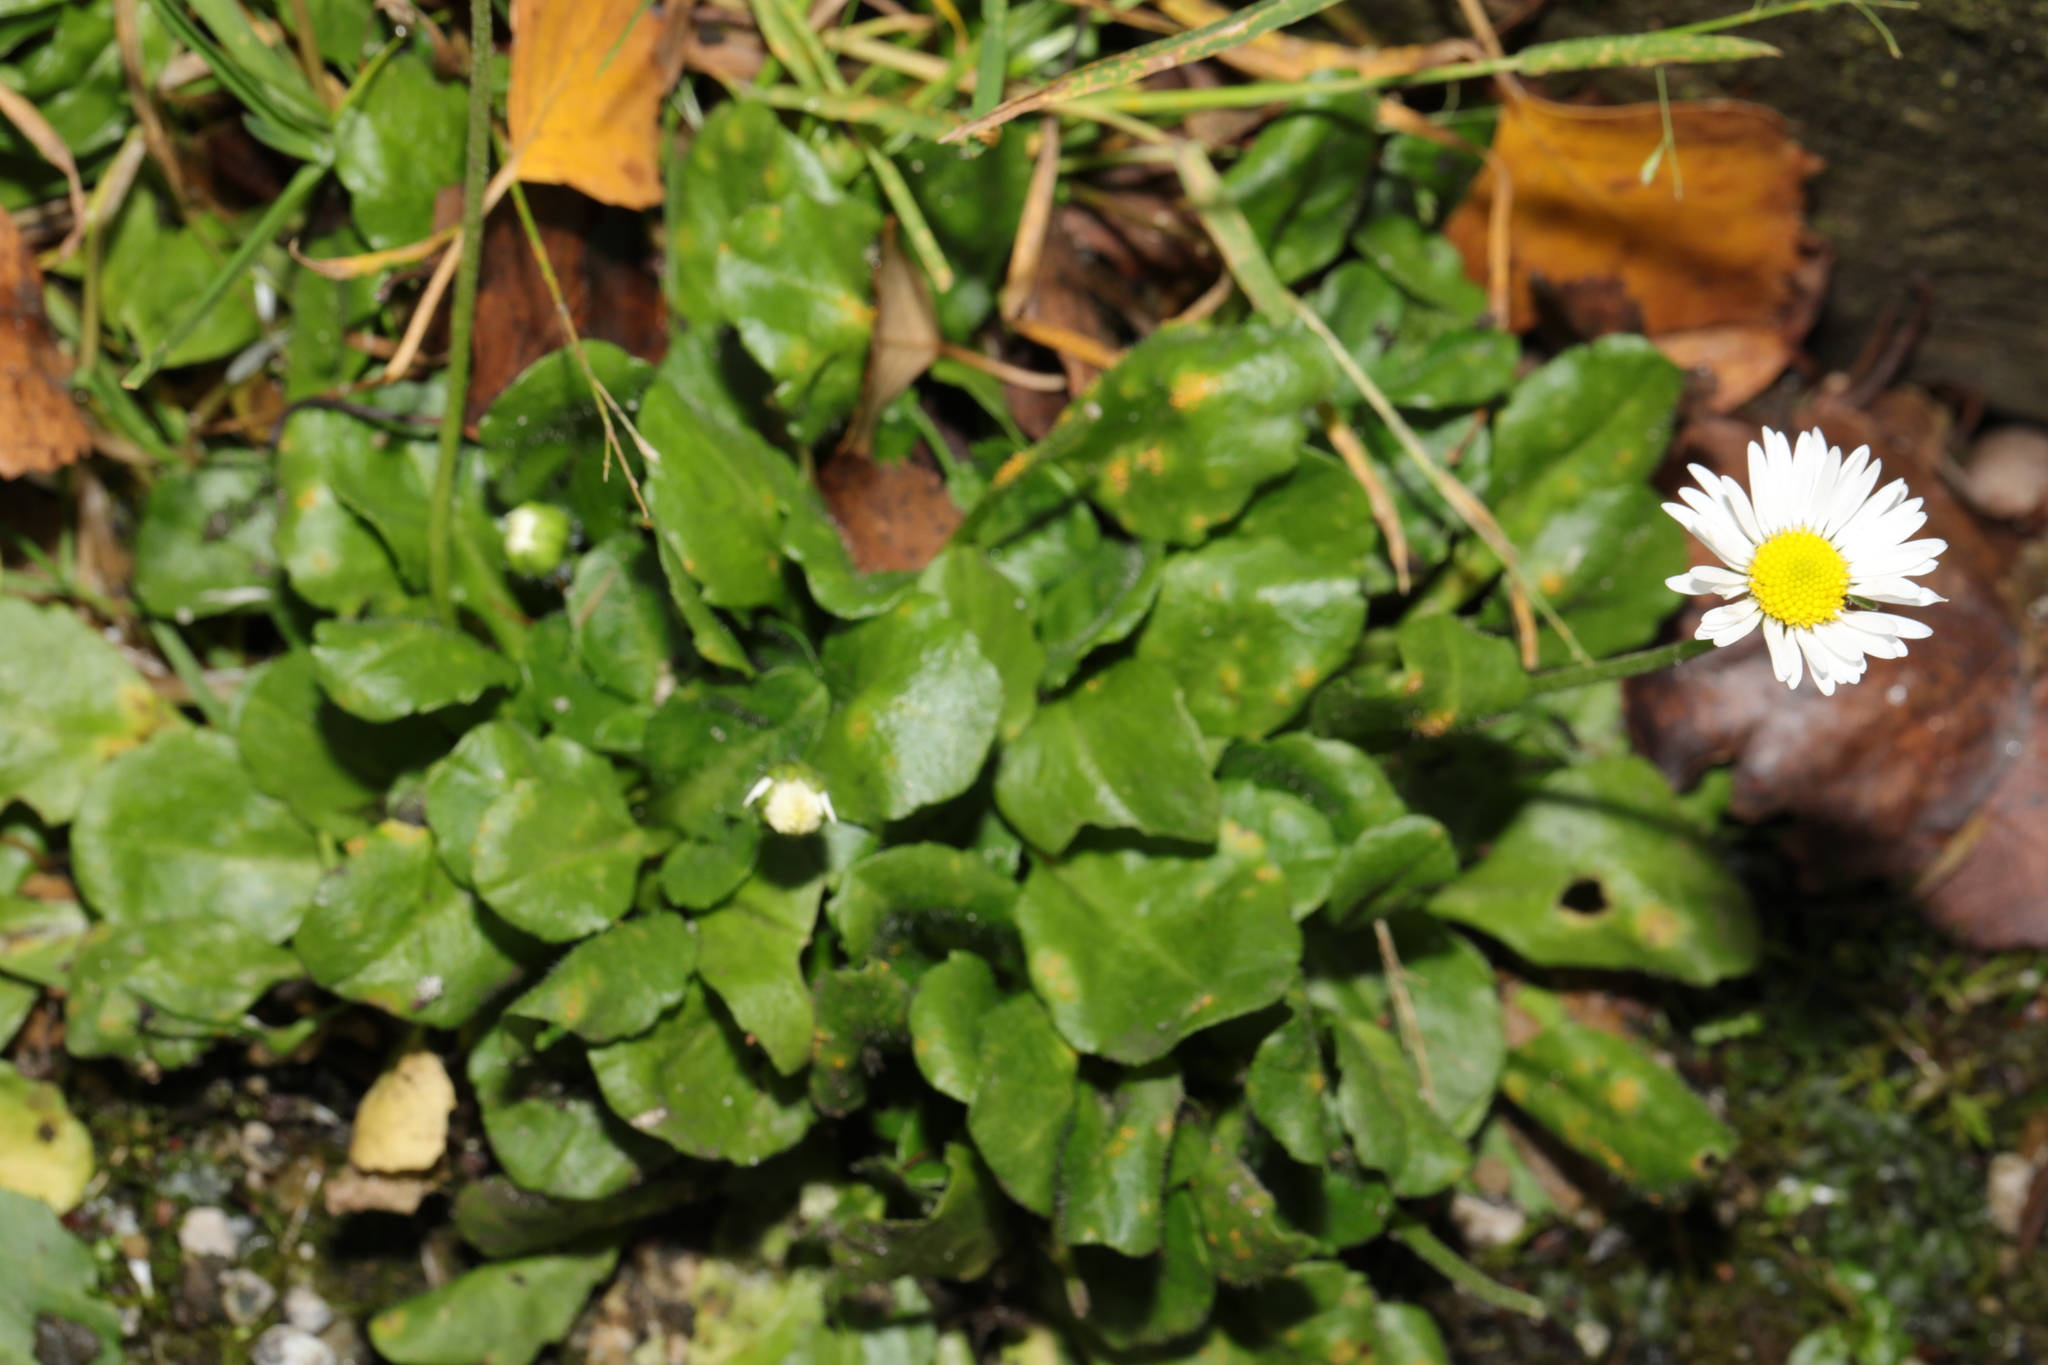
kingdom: Plantae
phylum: Tracheophyta
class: Magnoliopsida
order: Asterales
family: Asteraceae
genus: Bellis
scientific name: Bellis perennis
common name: Lawndaisy
